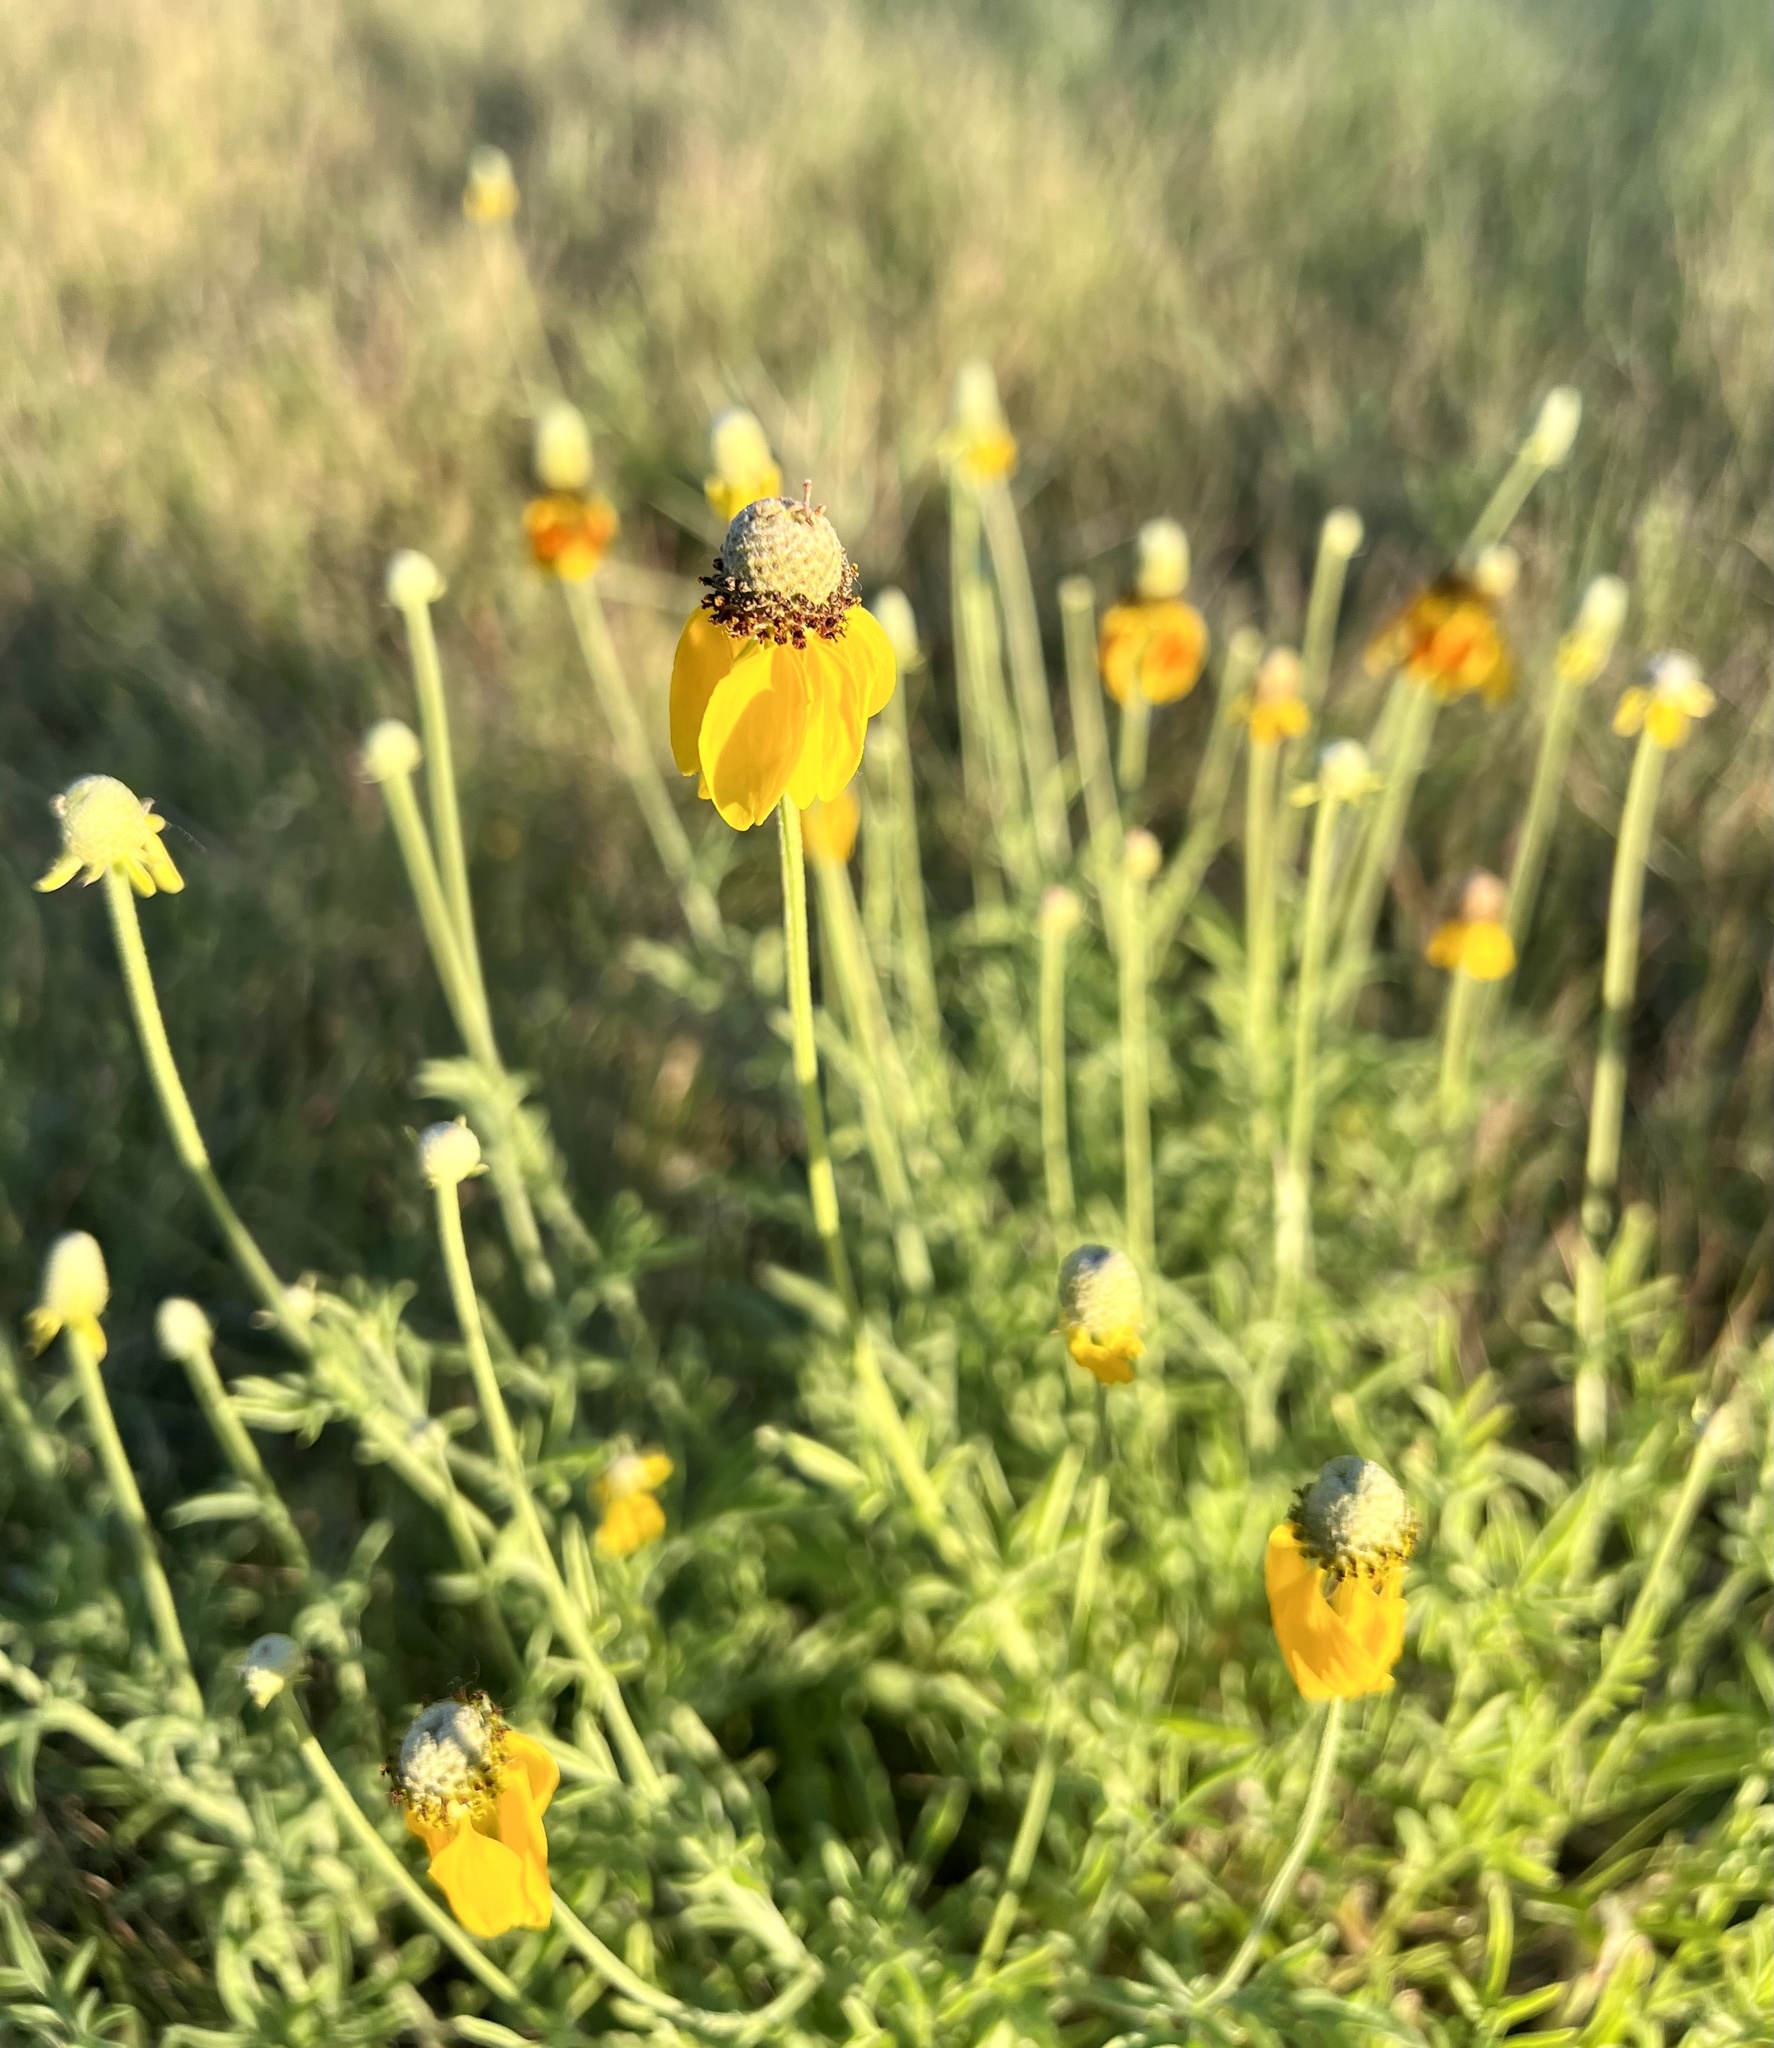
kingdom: Plantae
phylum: Tracheophyta
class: Magnoliopsida
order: Asterales
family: Asteraceae
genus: Ratibida
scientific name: Ratibida columnifera
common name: Prairie coneflower
